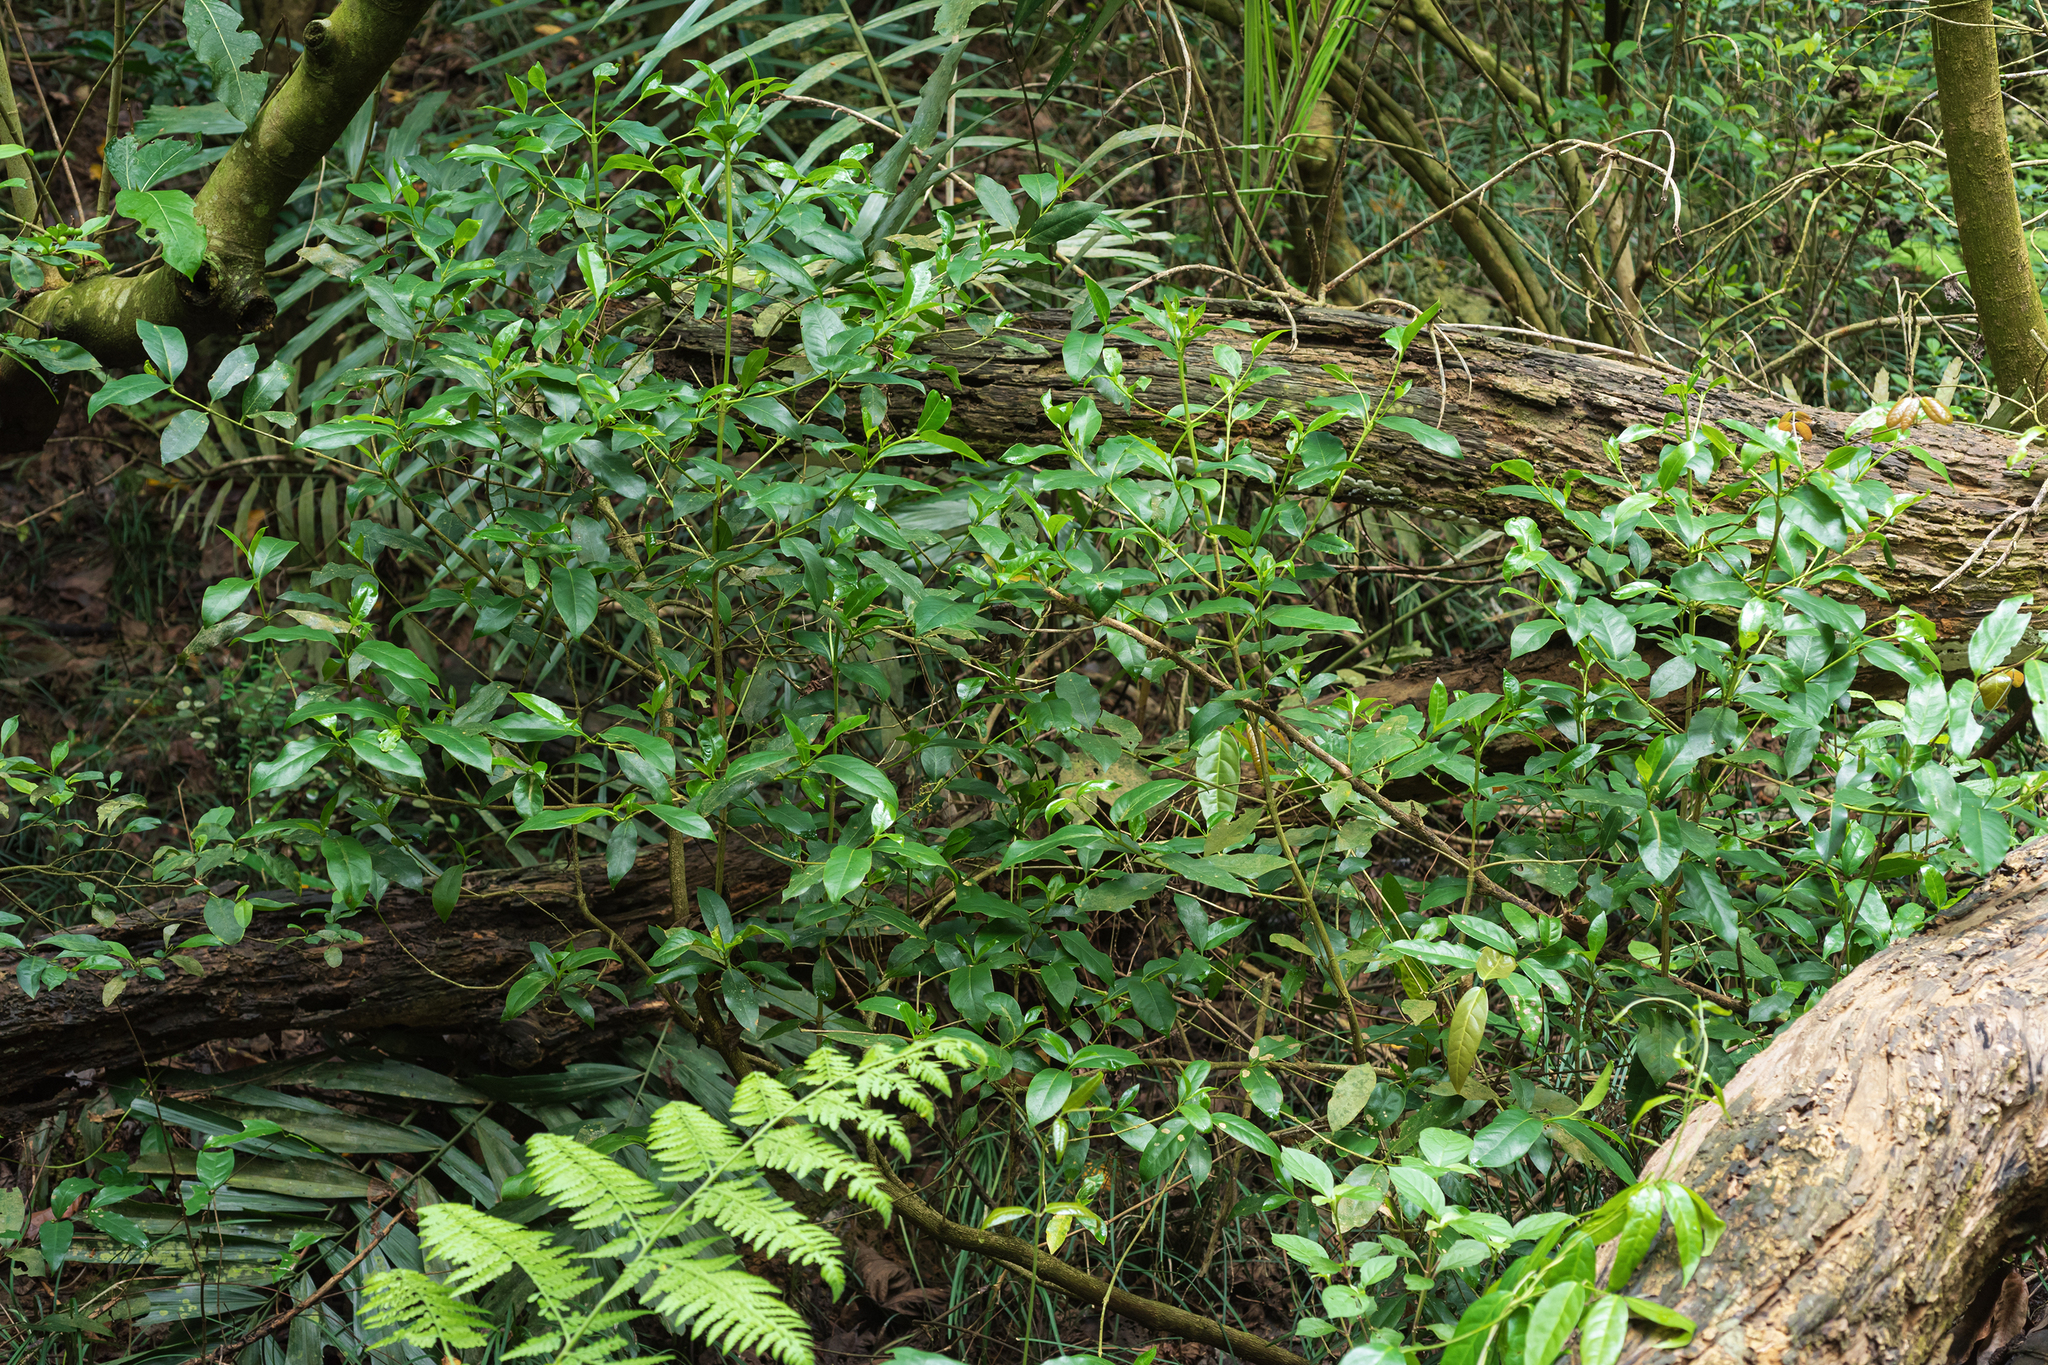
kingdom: Plantae
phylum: Tracheophyta
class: Magnoliopsida
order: Gentianales
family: Rubiaceae
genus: Diplospora
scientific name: Diplospora dubia
